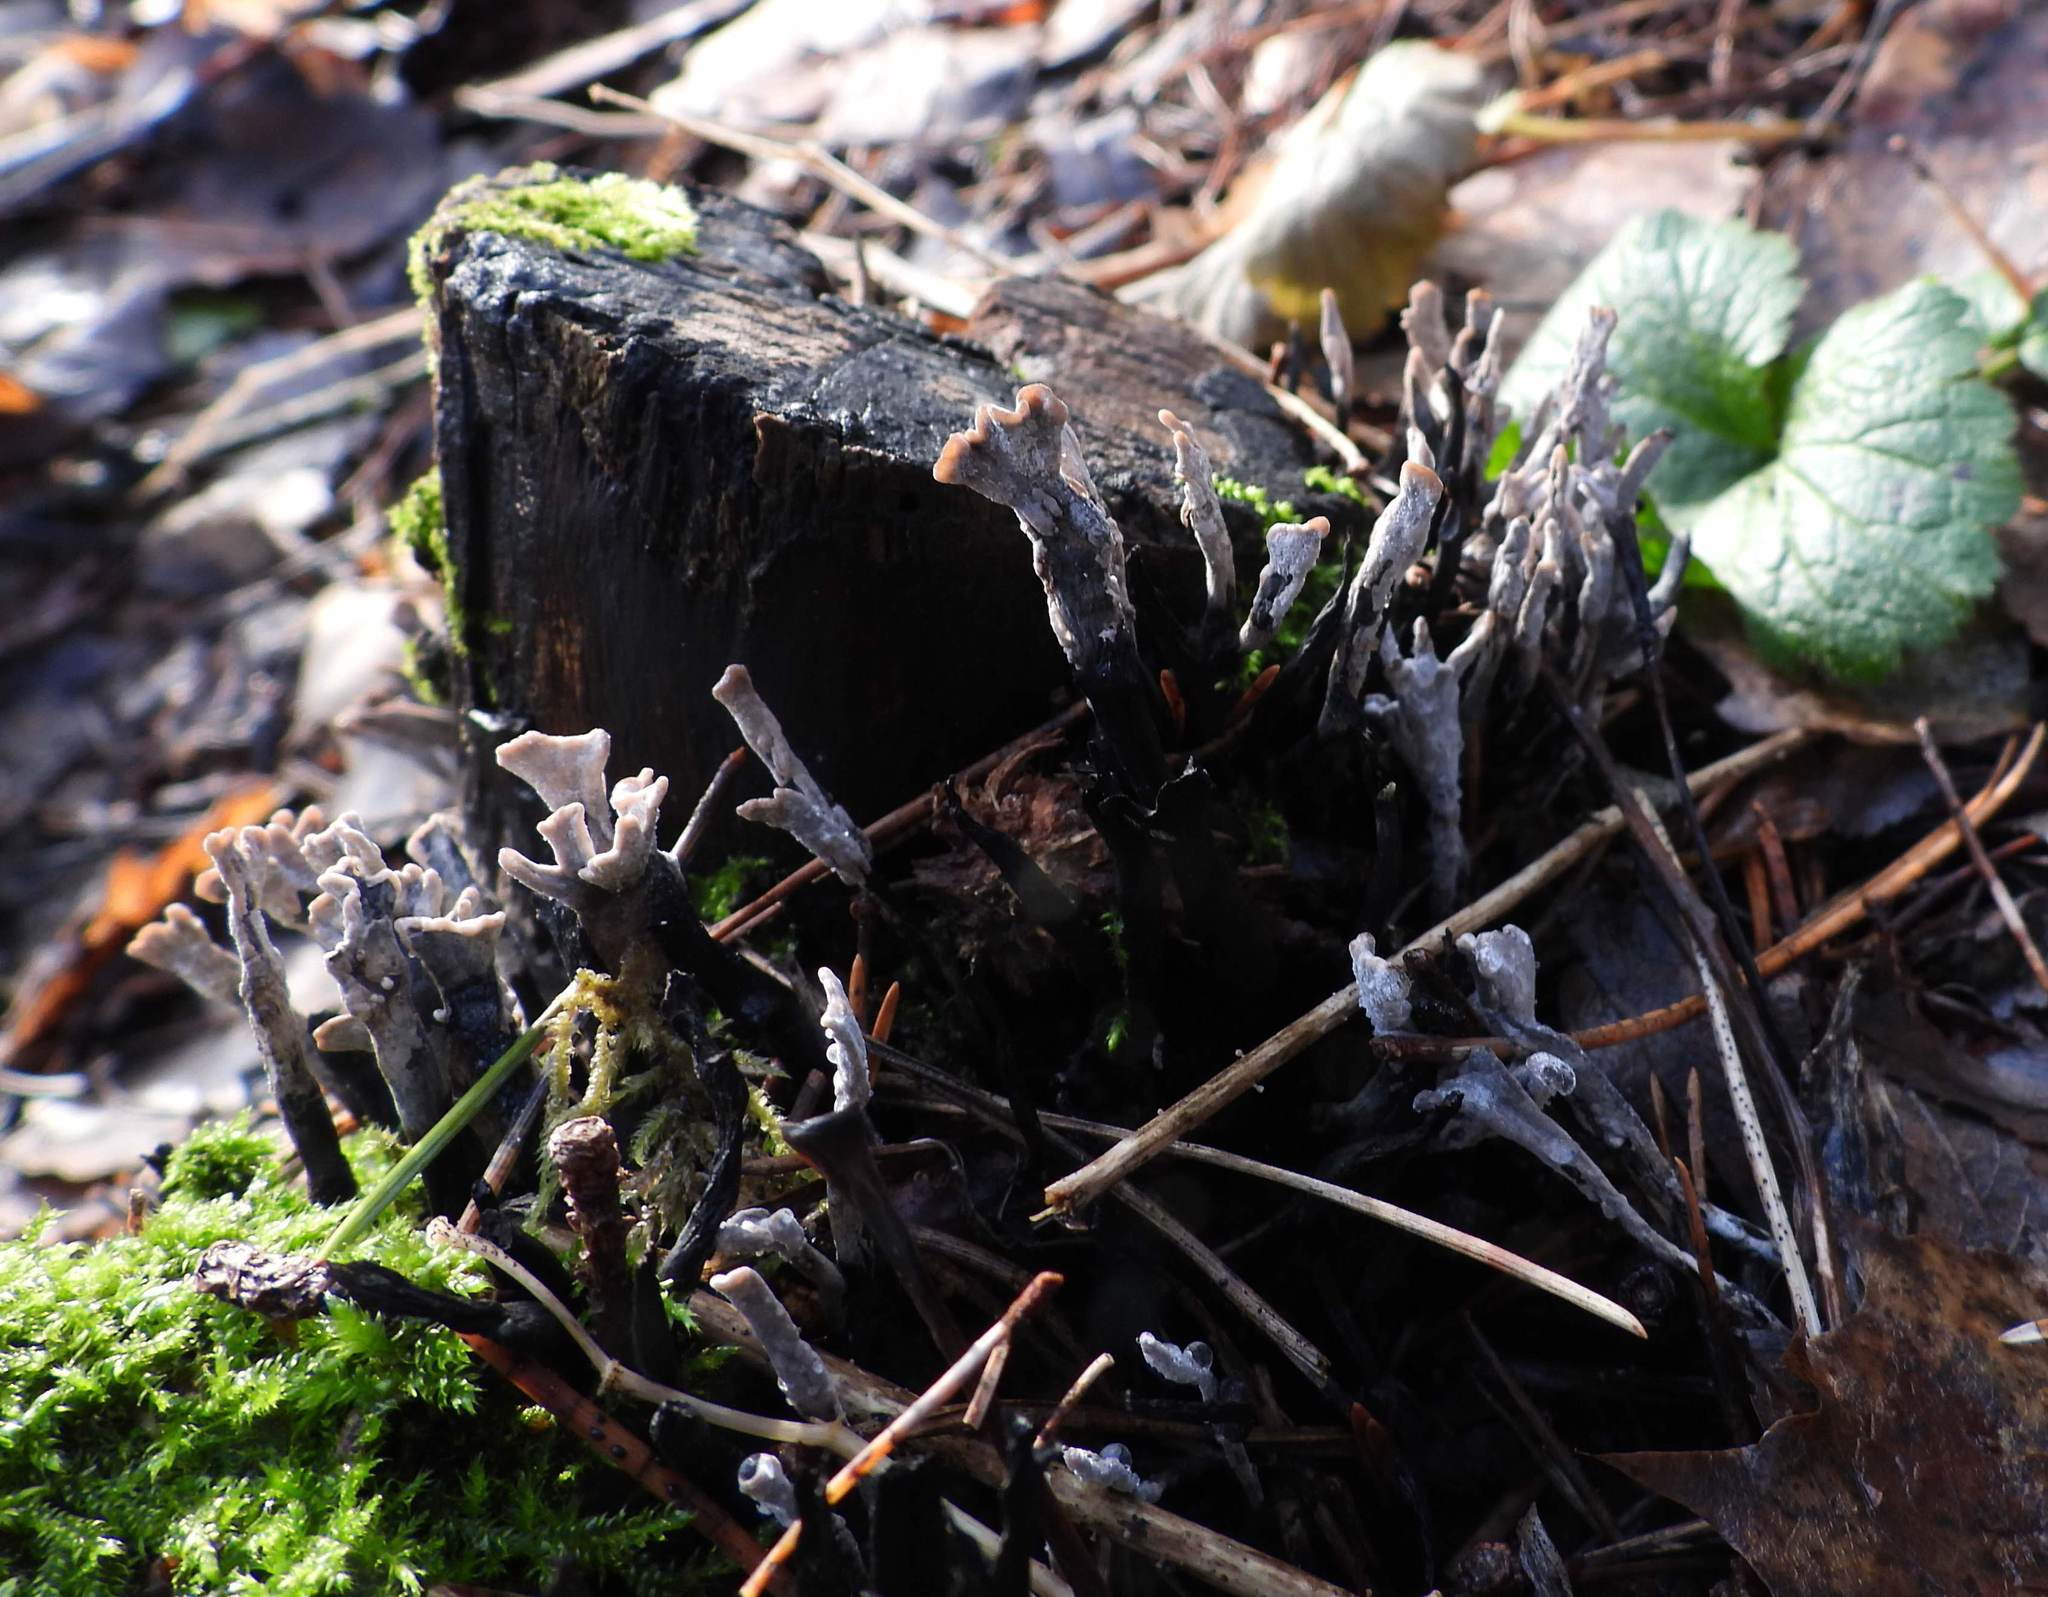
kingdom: Fungi
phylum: Ascomycota
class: Sordariomycetes
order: Xylariales
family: Xylariaceae
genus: Xylaria
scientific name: Xylaria hypoxylon
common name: Candle-snuff fungus
